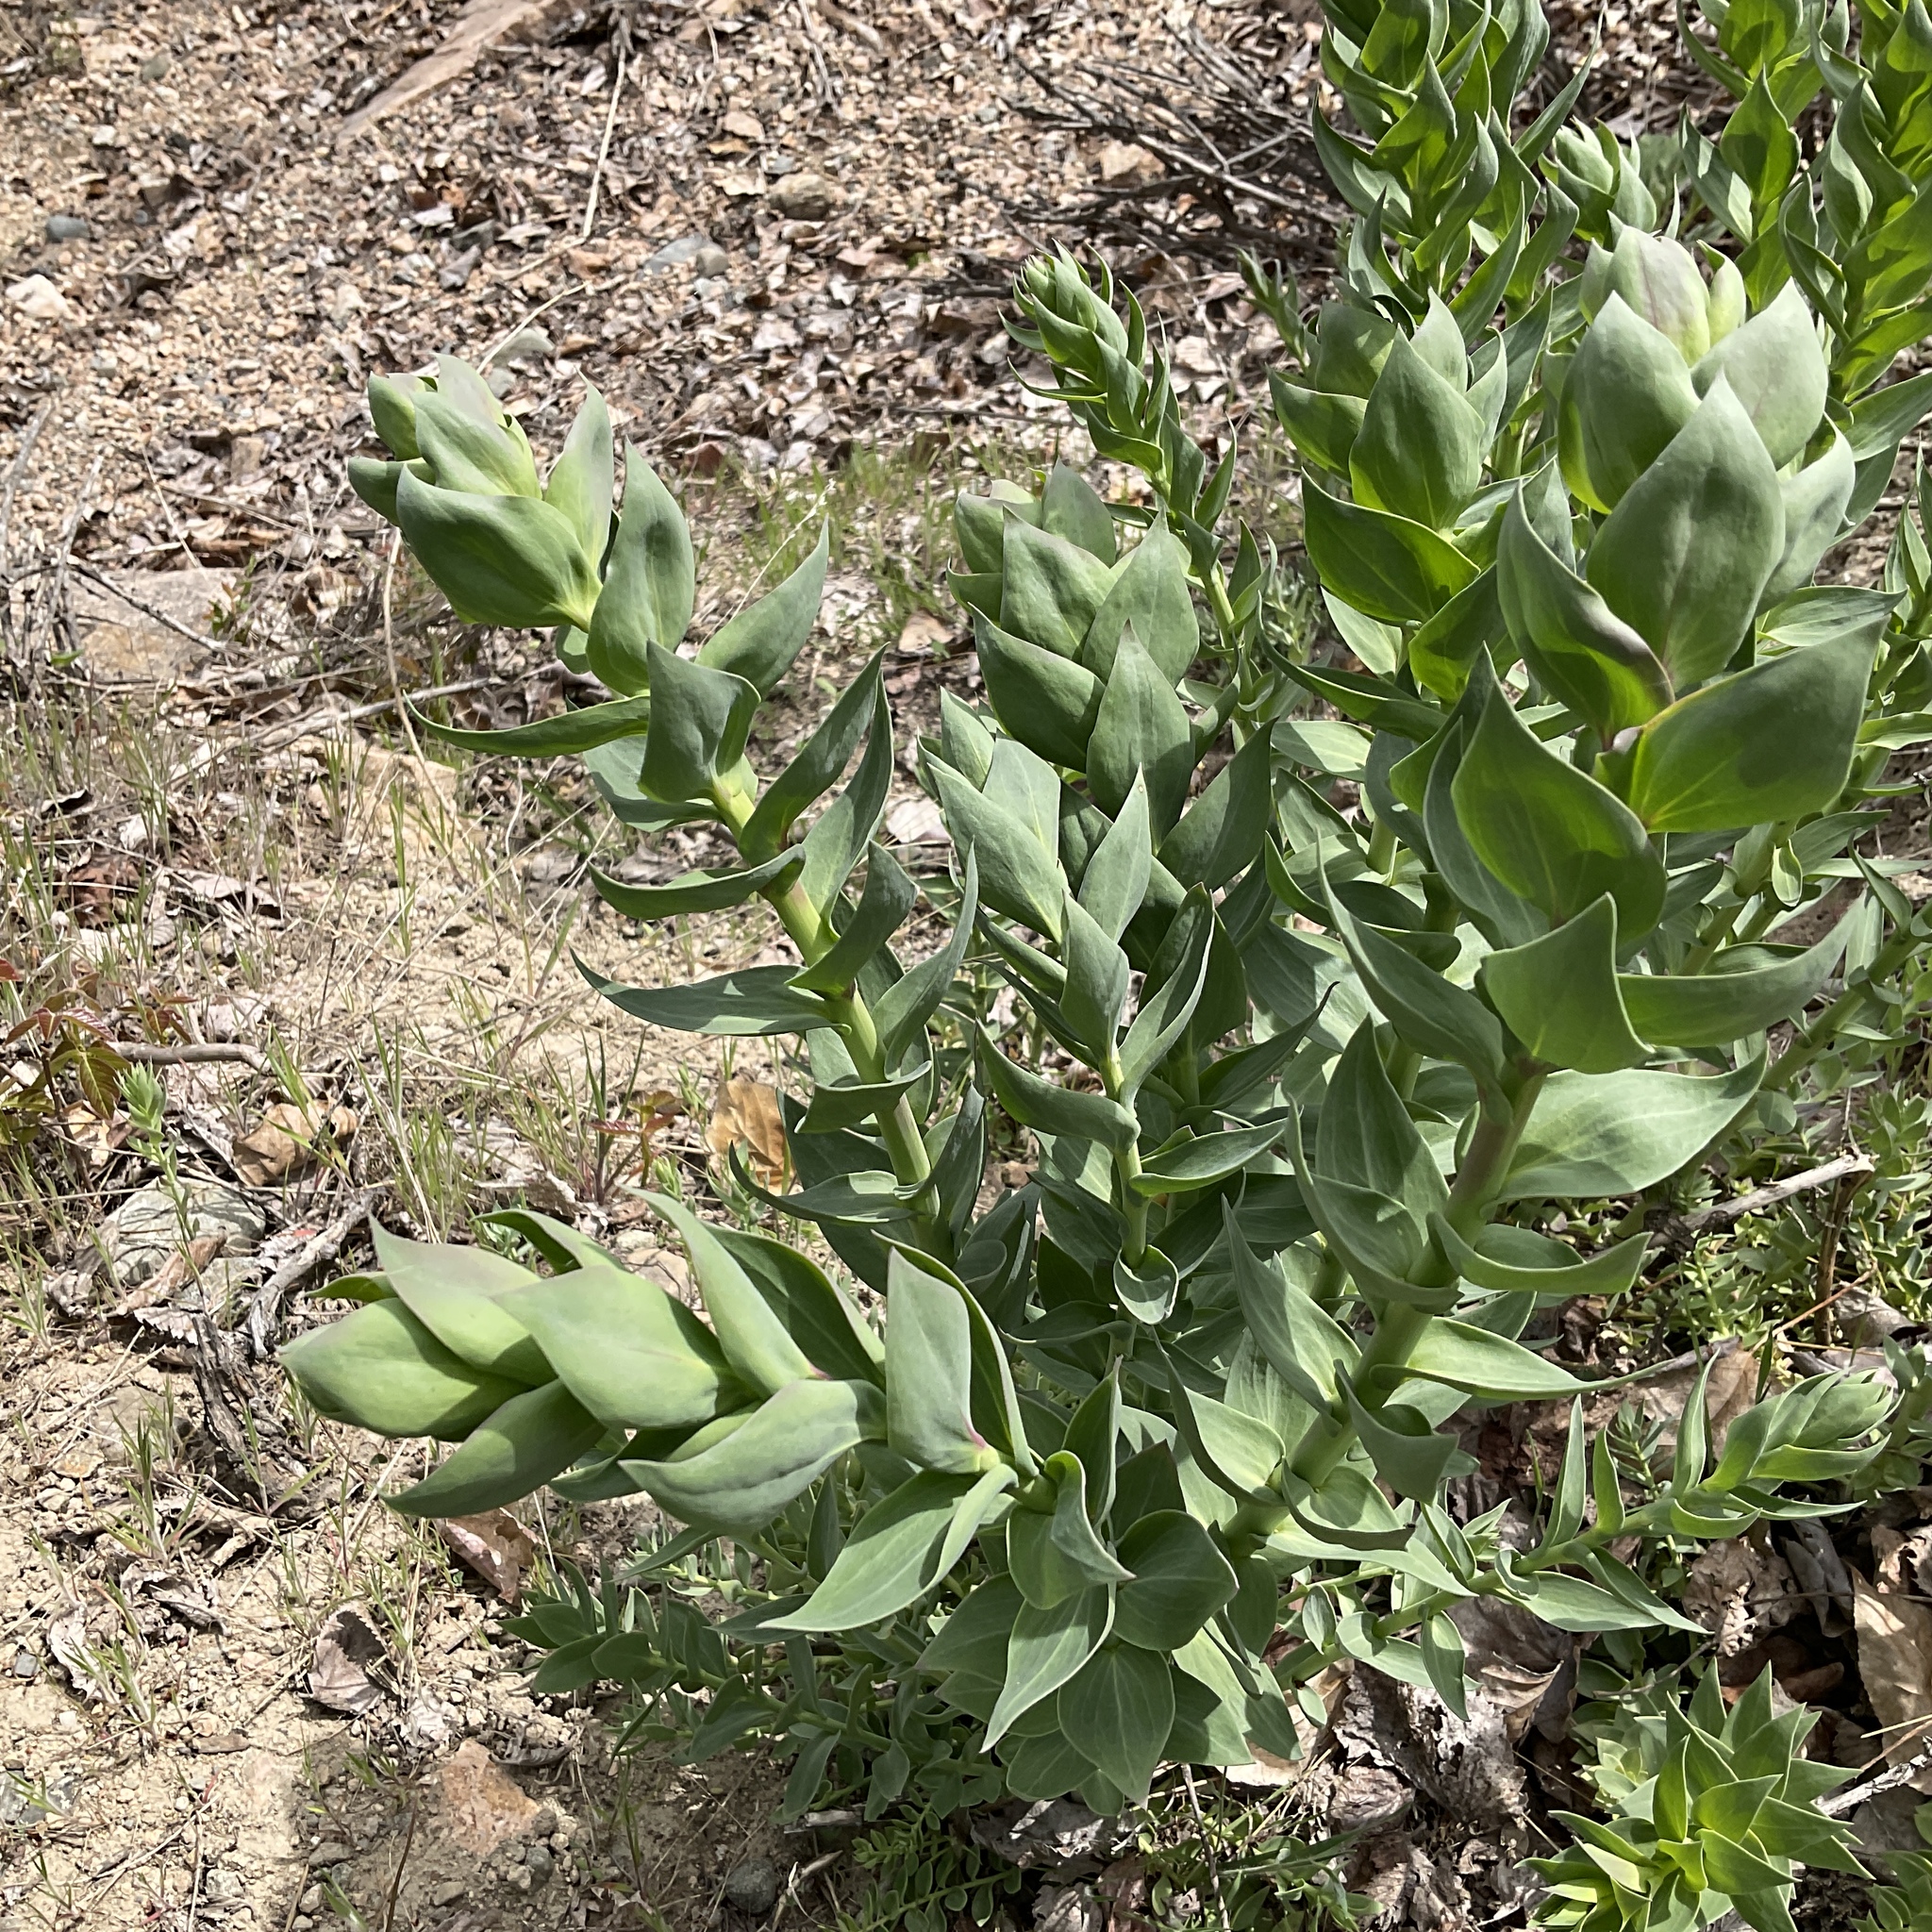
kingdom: Plantae
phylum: Tracheophyta
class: Magnoliopsida
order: Lamiales
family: Plantaginaceae
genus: Linaria
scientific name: Linaria dalmatica
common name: Dalmatian toadflax
